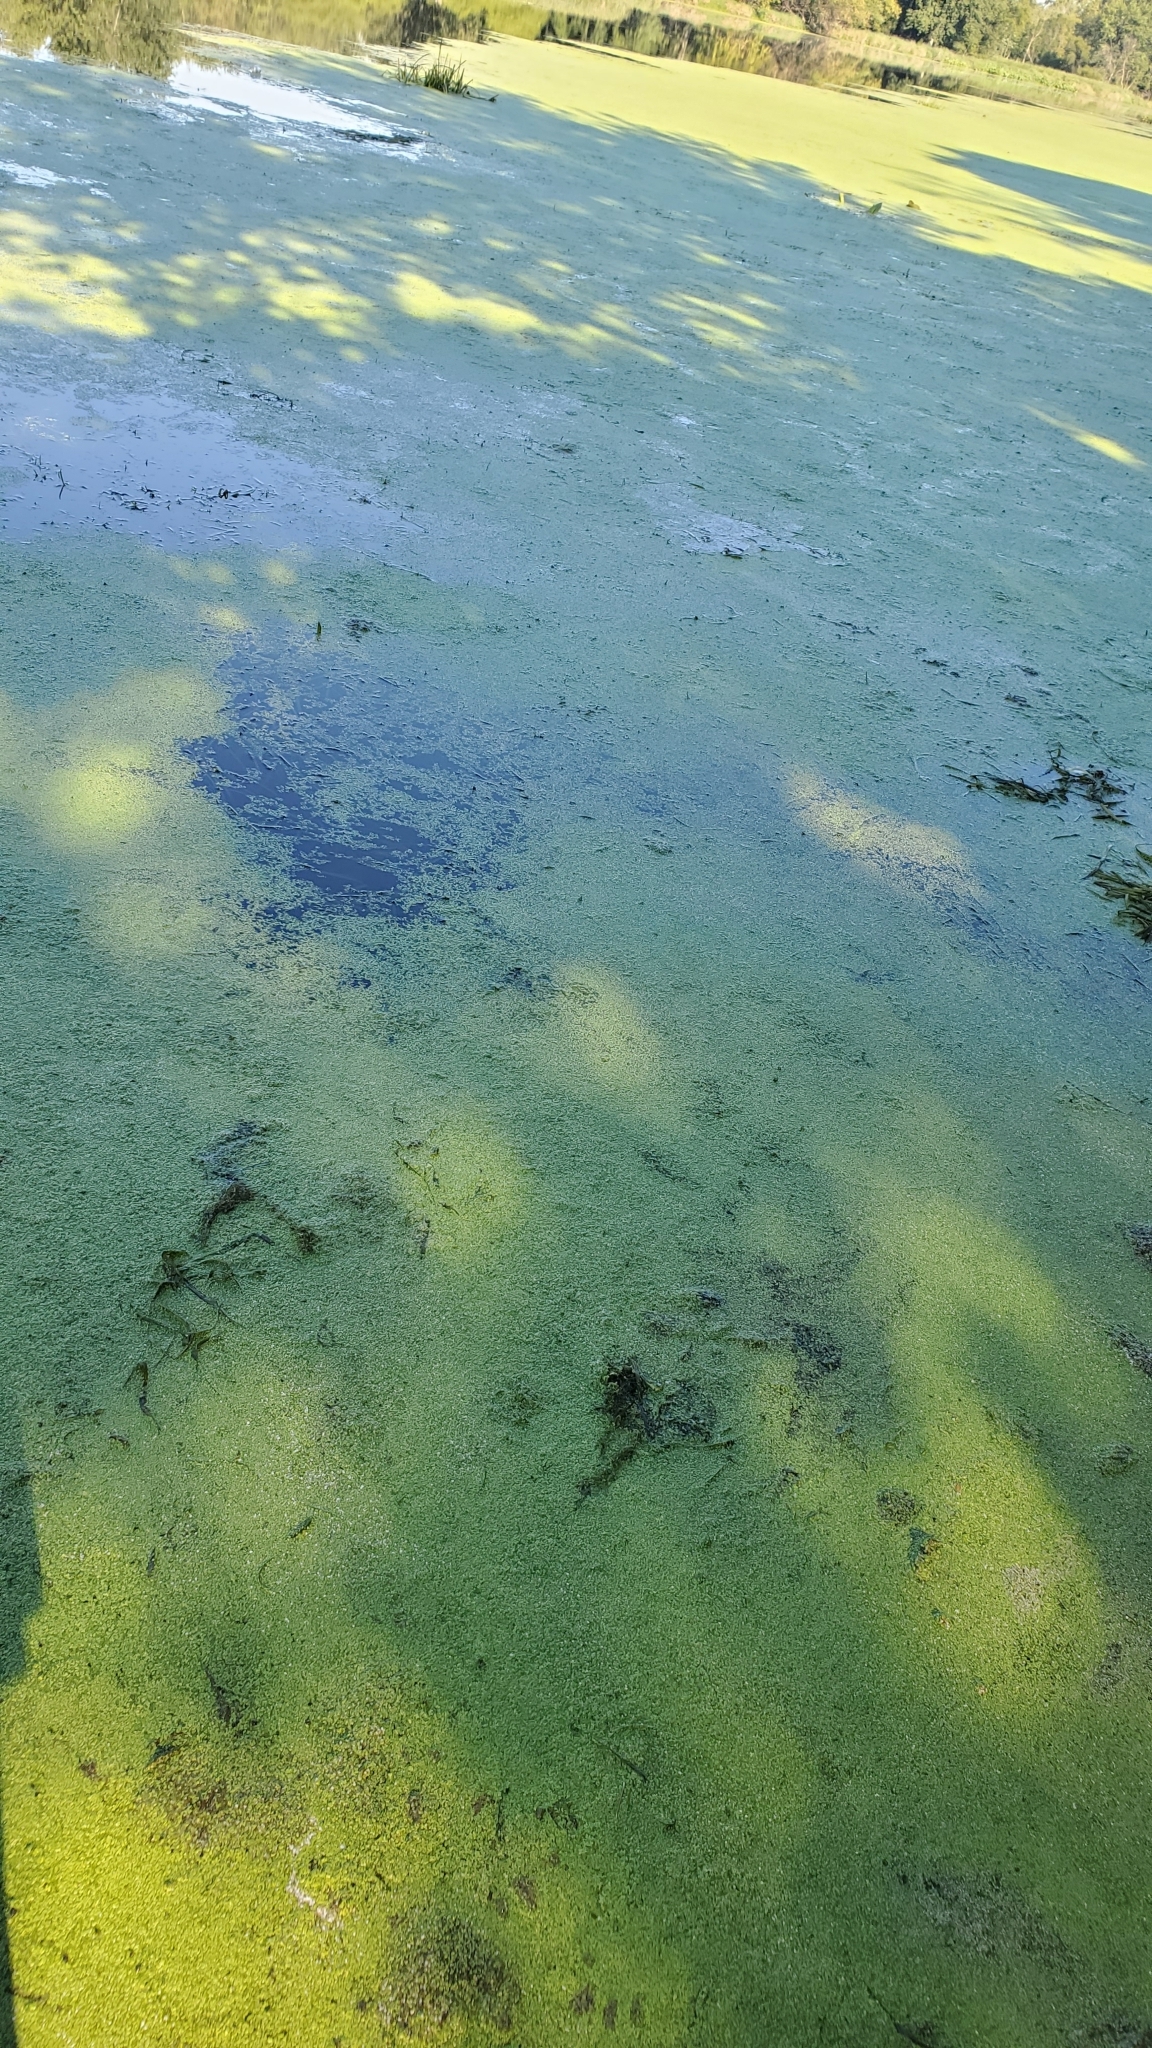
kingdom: Plantae
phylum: Tracheophyta
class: Liliopsida
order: Alismatales
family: Araceae
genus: Lemna
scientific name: Lemna minor
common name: Common duckweed
